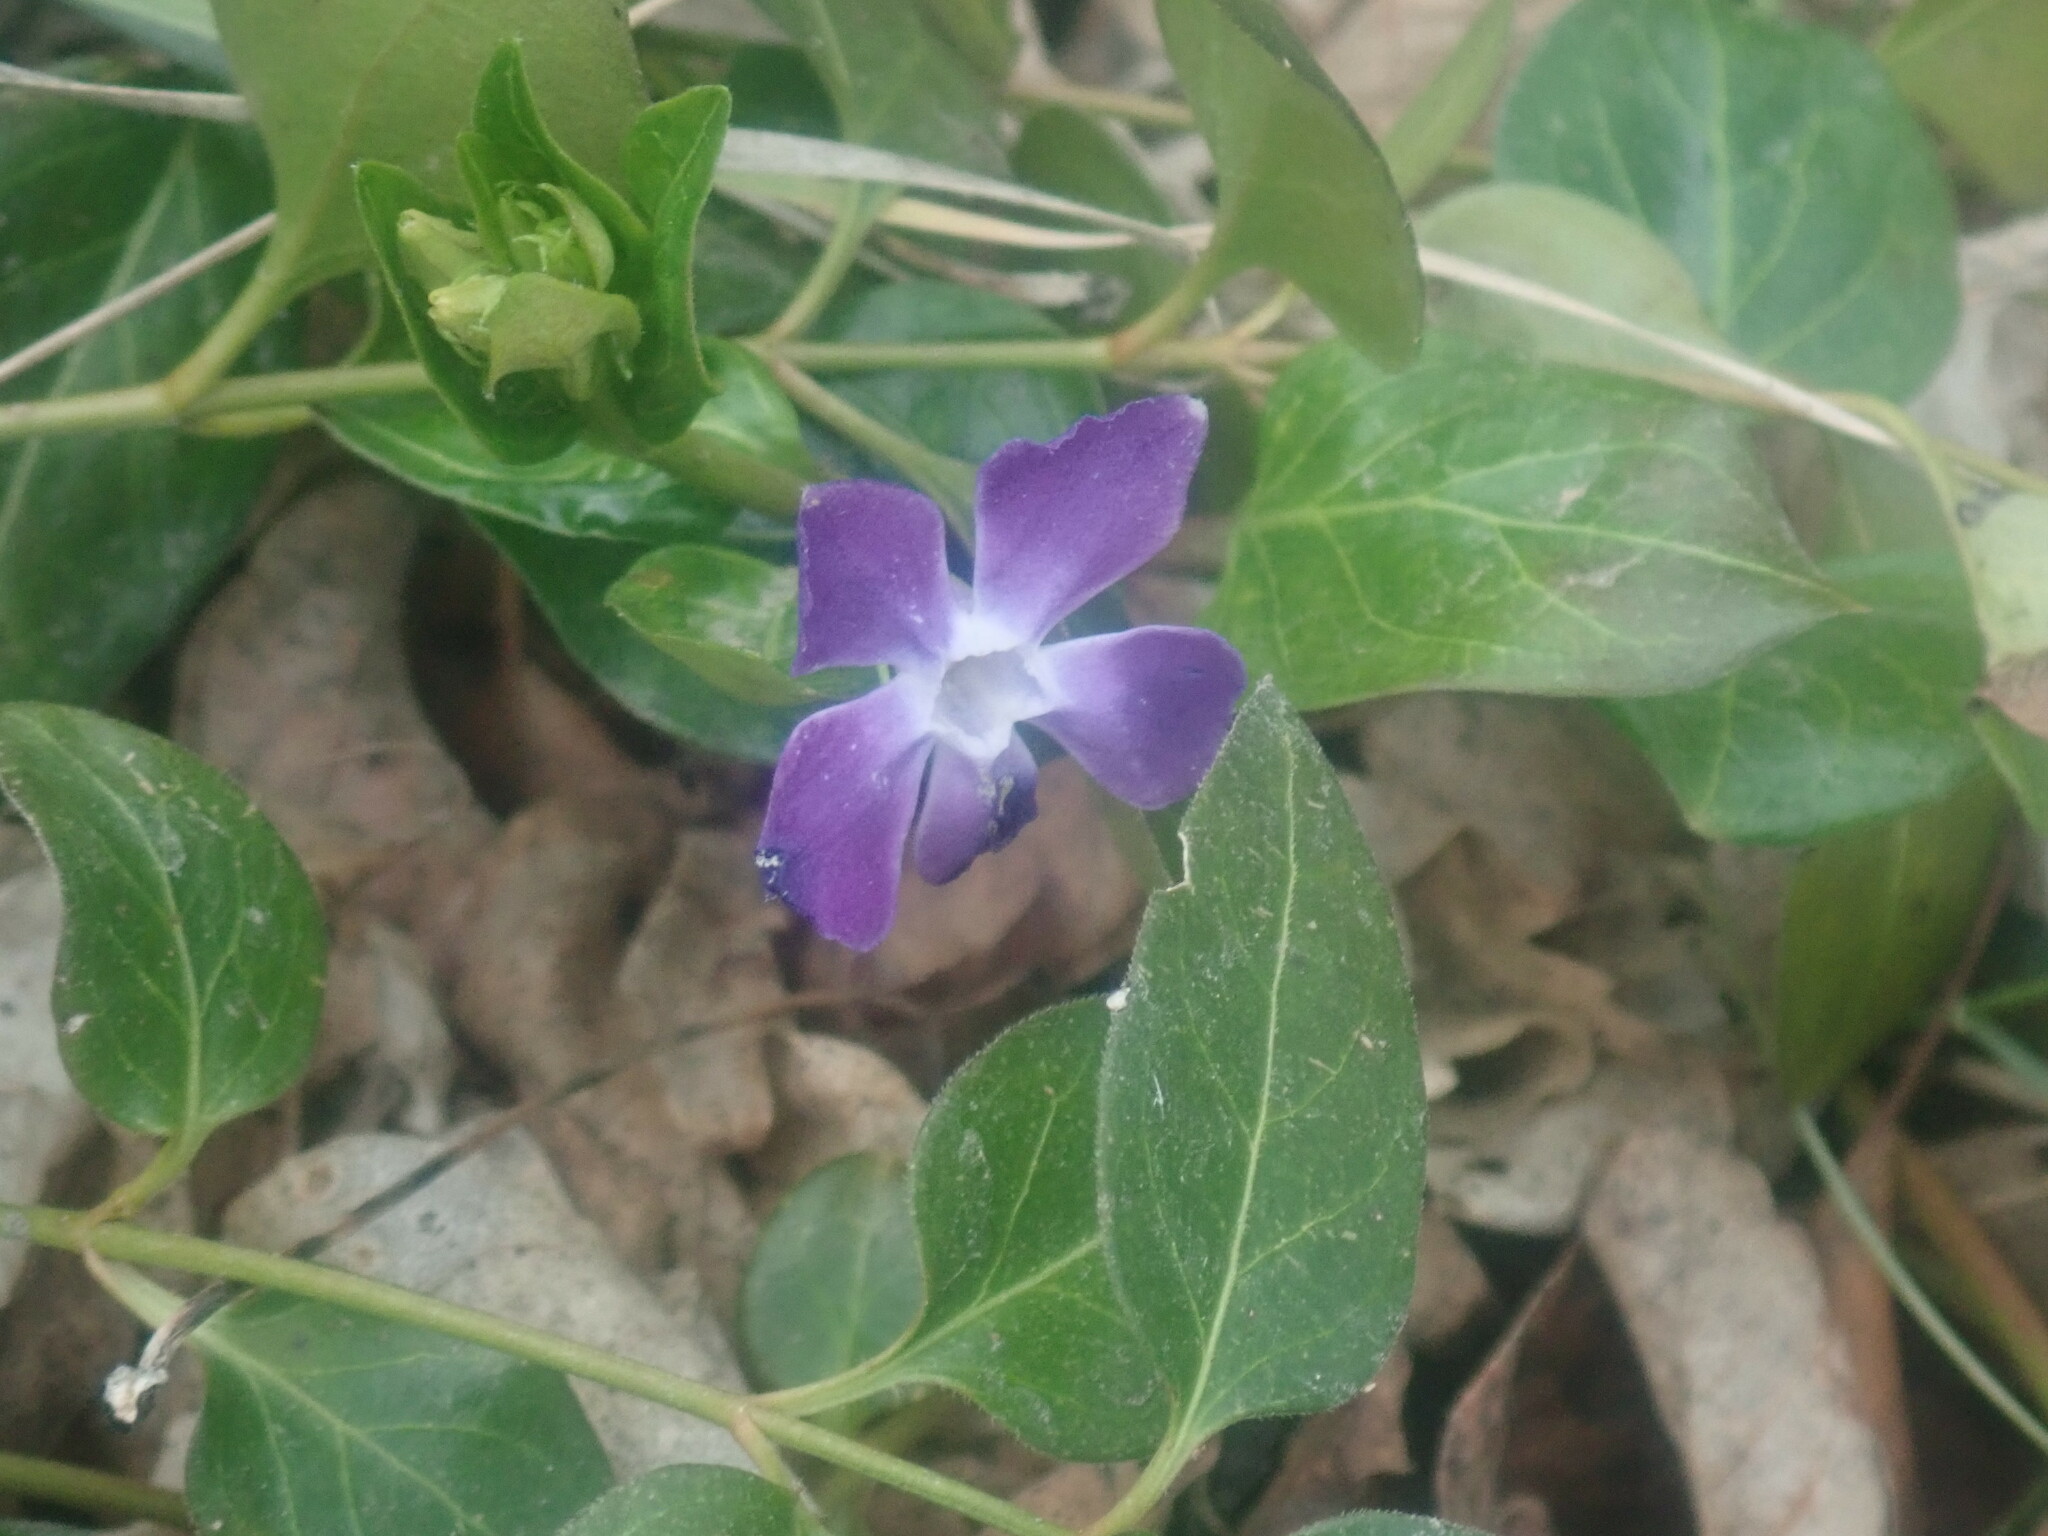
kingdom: Plantae
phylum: Tracheophyta
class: Magnoliopsida
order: Gentianales
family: Apocynaceae
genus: Vinca
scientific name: Vinca major
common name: Greater periwinkle
